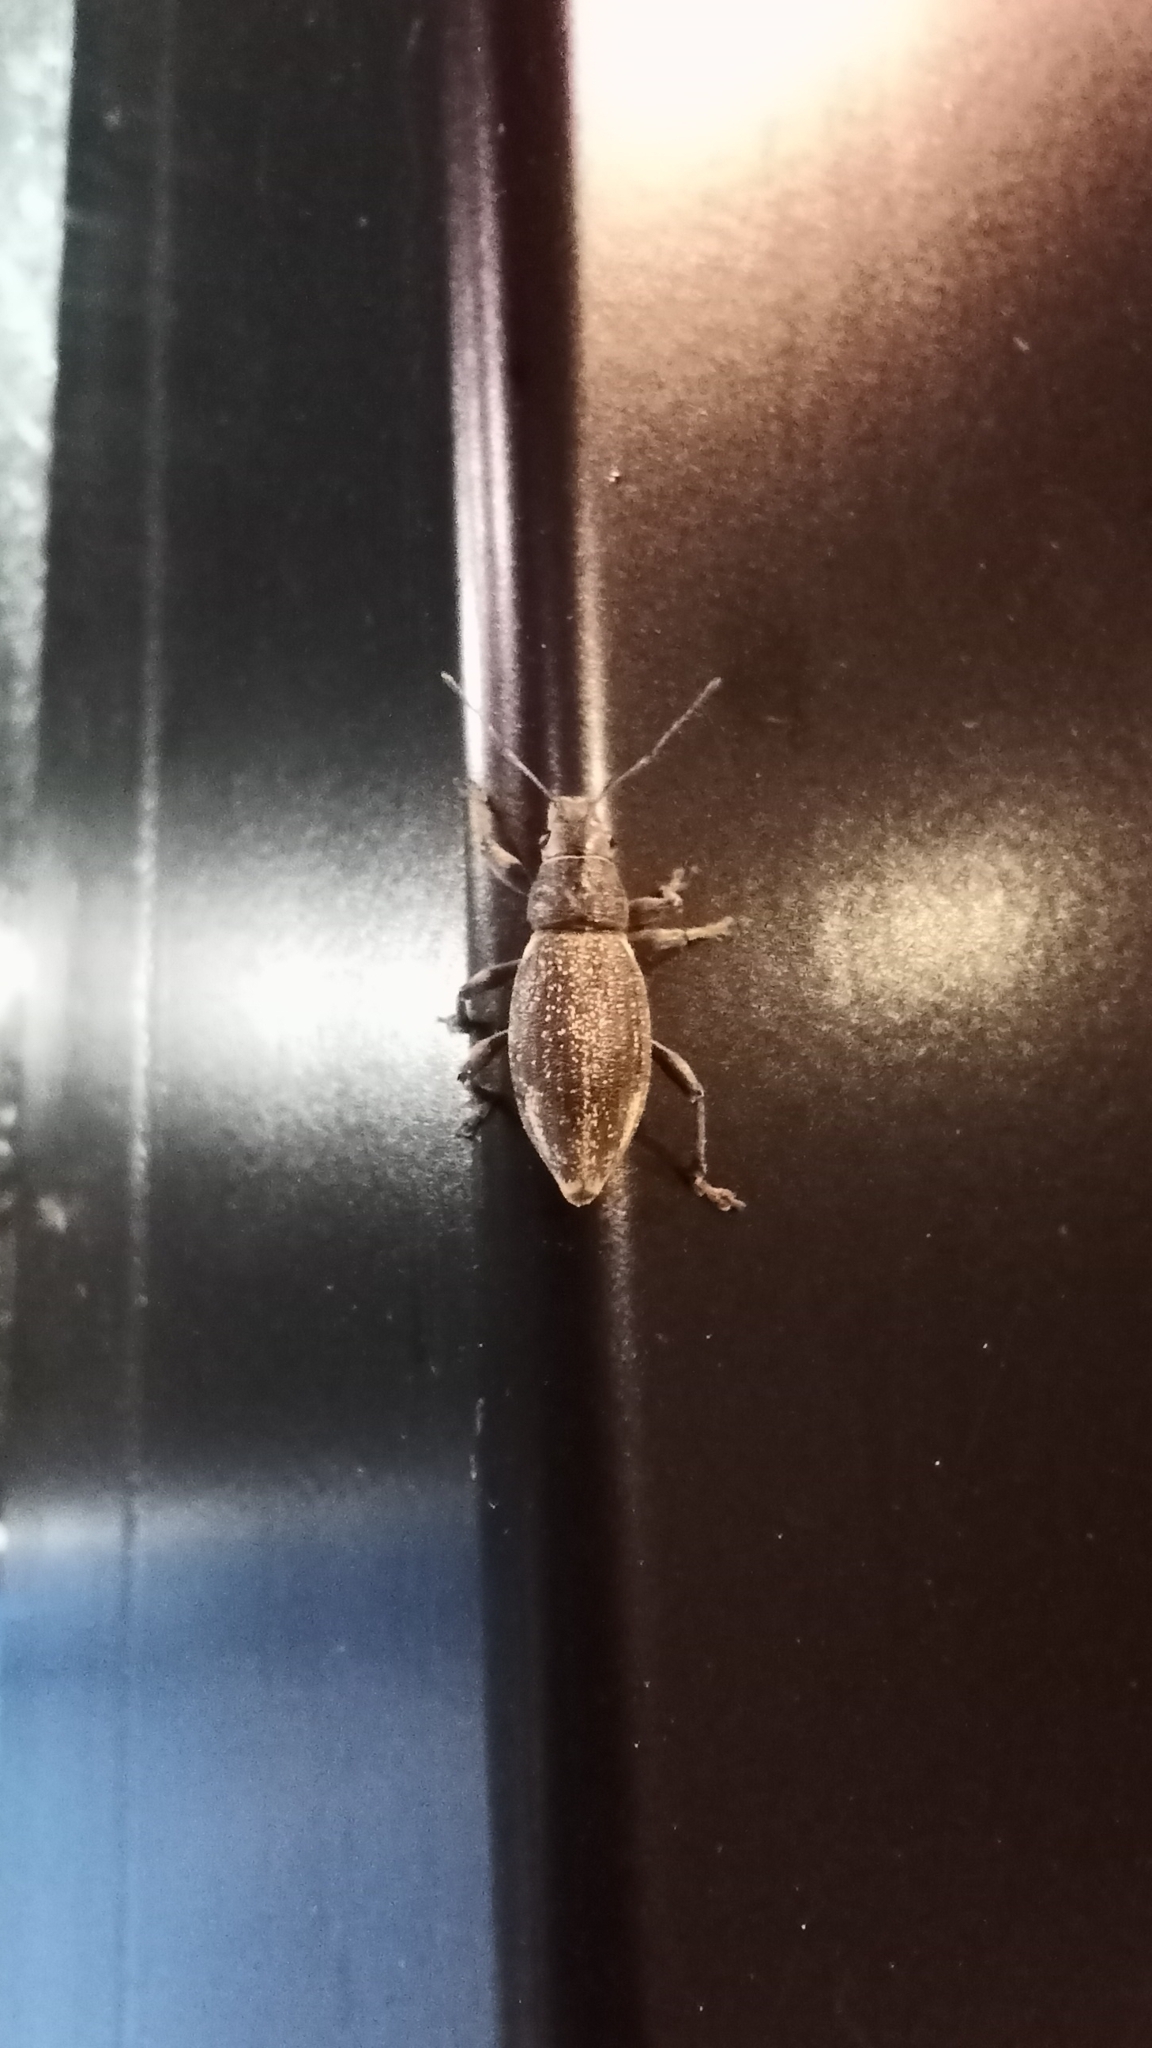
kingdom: Animalia
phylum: Arthropoda
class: Insecta
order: Coleoptera
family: Curculionidae
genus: Brachyderes
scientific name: Brachyderes lusitanicus
